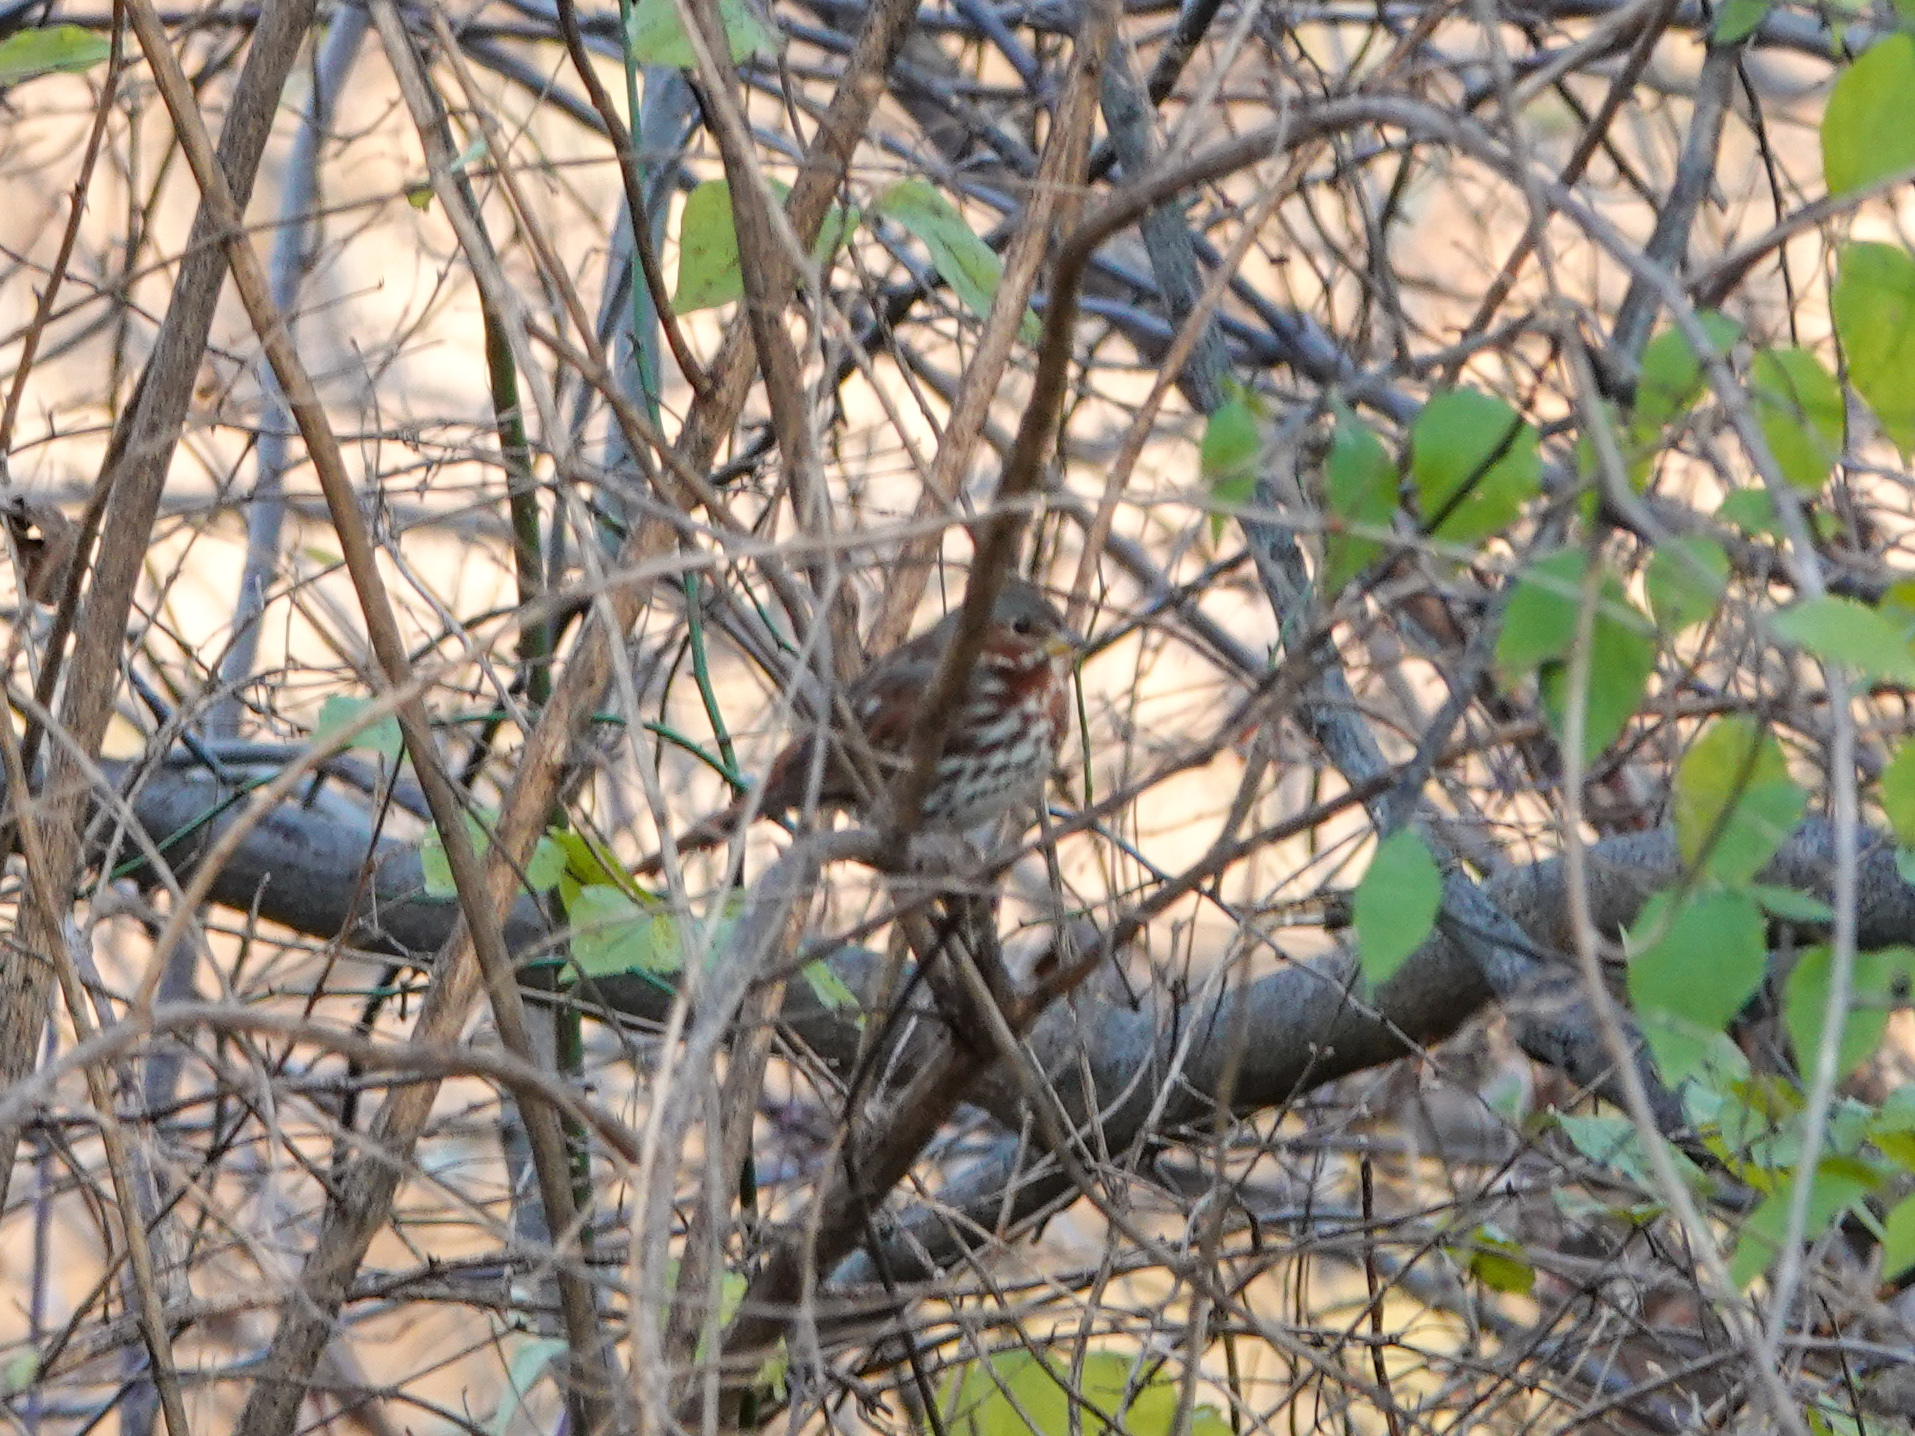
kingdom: Animalia
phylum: Chordata
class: Aves
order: Passeriformes
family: Passerellidae
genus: Passerella
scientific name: Passerella iliaca
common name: Fox sparrow
